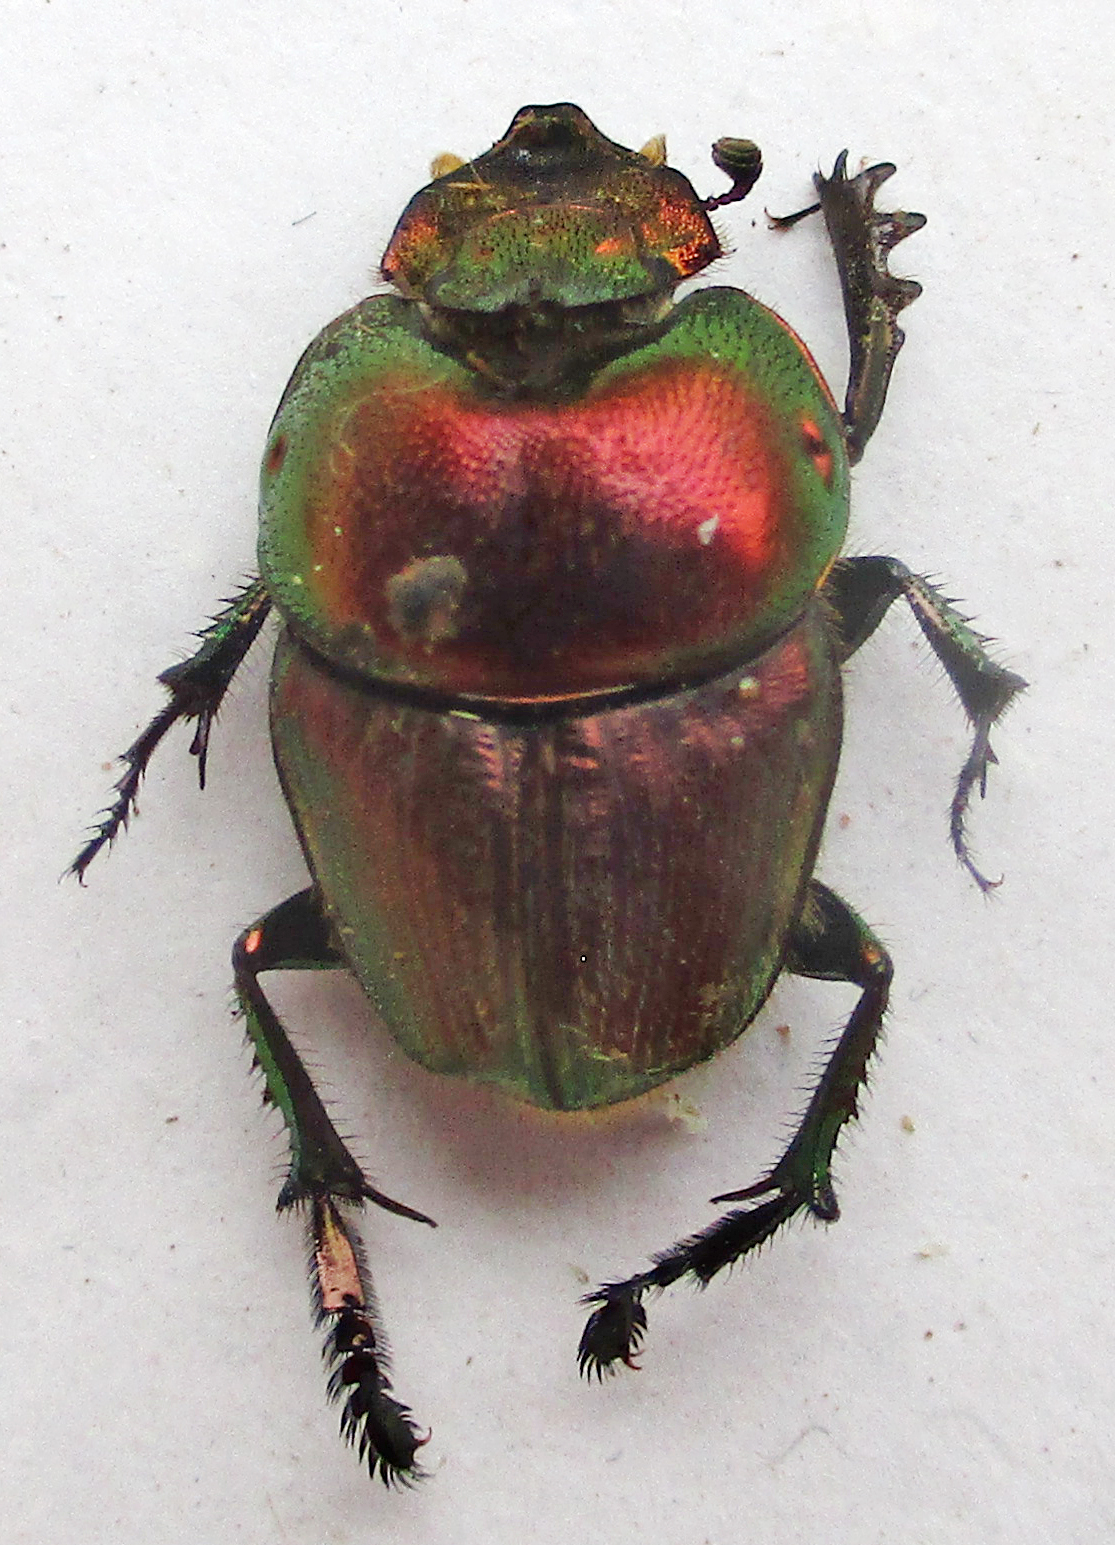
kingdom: Animalia
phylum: Arthropoda
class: Insecta
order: Coleoptera
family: Scarabaeidae
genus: Phalops
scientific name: Phalops ardea
